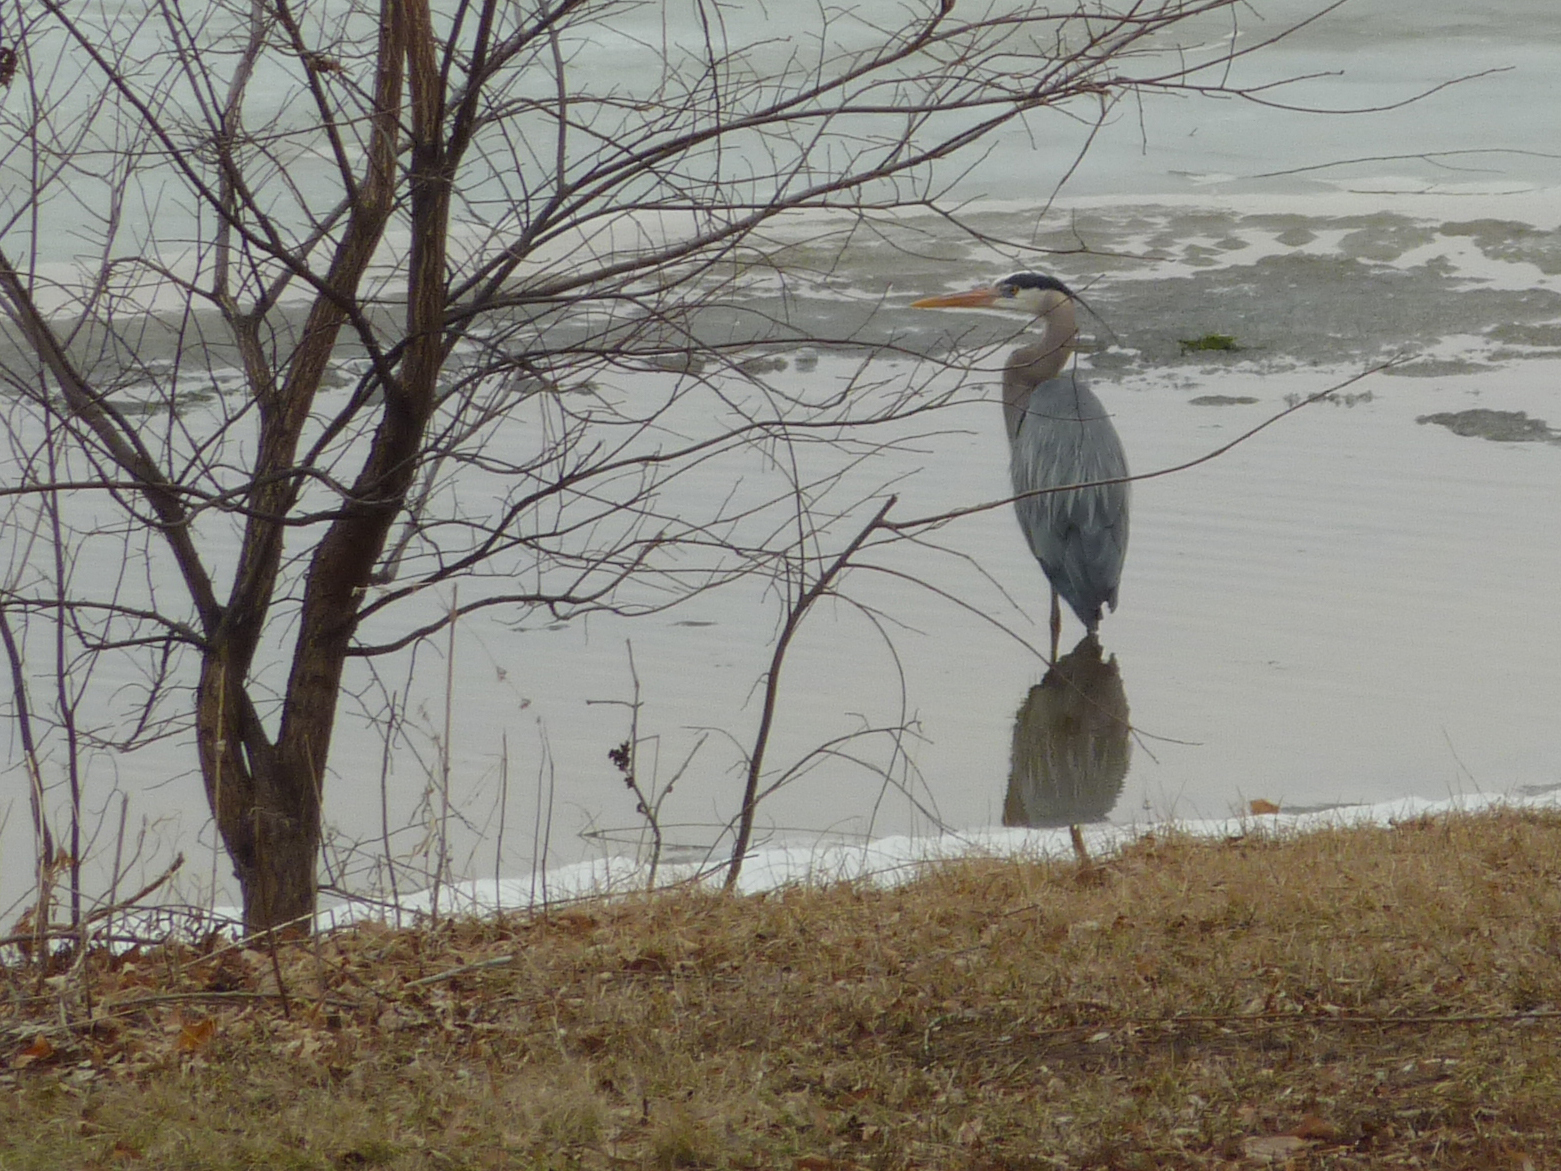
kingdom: Animalia
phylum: Chordata
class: Aves
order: Pelecaniformes
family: Ardeidae
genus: Ardea
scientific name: Ardea herodias
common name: Great blue heron
